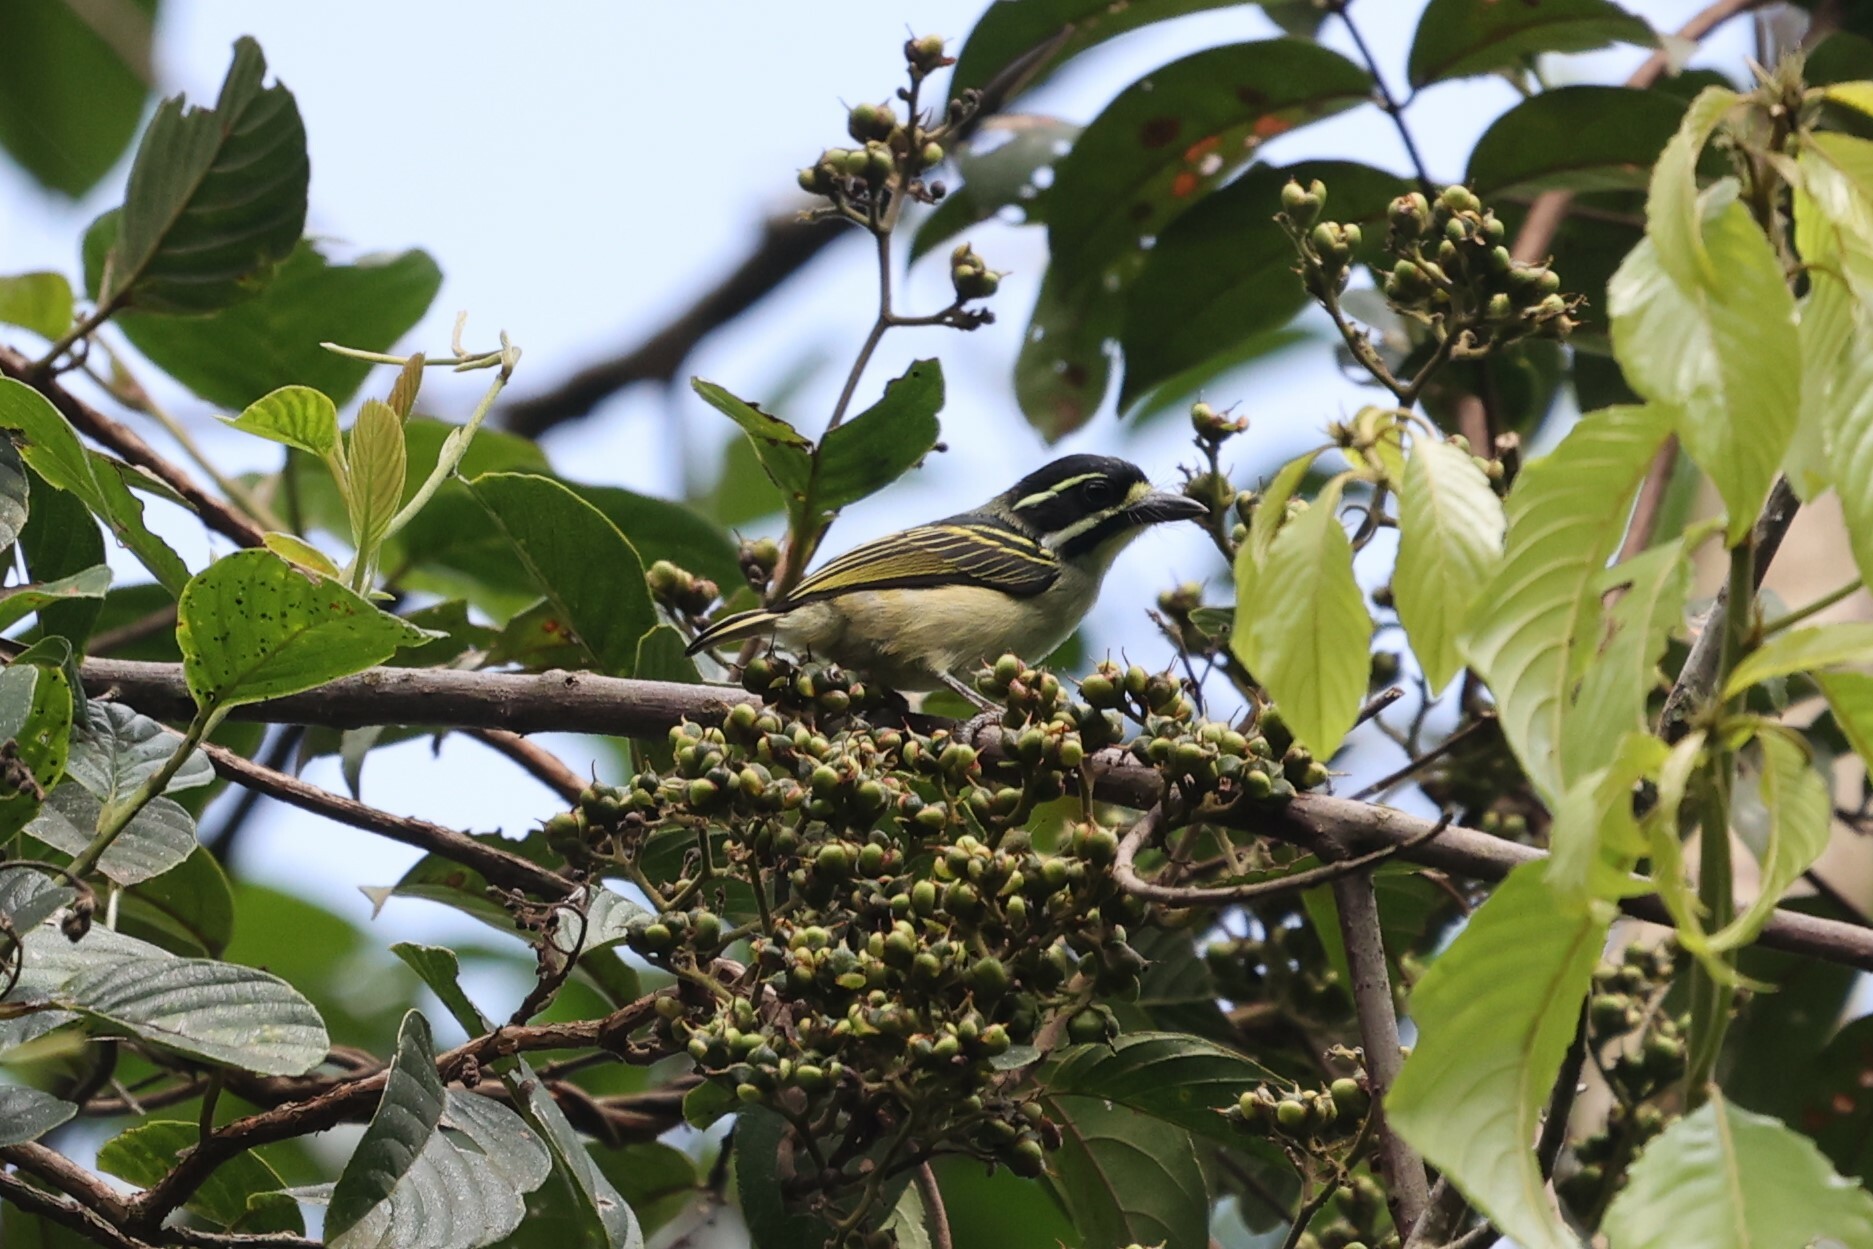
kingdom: Animalia
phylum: Chordata
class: Aves
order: Piciformes
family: Lybiidae
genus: Pogoniulus
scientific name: Pogoniulus subsulphureus
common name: Yellow-throated tinkerbird
